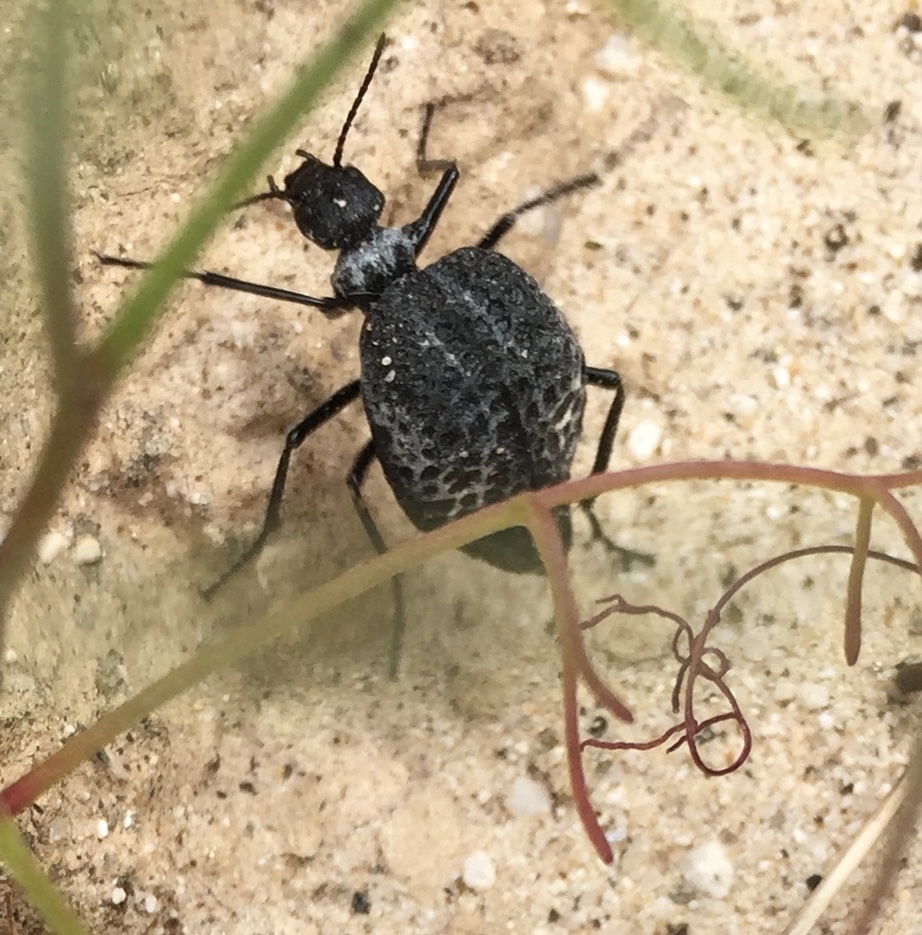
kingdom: Animalia
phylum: Arthropoda
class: Insecta
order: Coleoptera
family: Meloidae
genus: Cysteodemus
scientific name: Cysteodemus armatus
